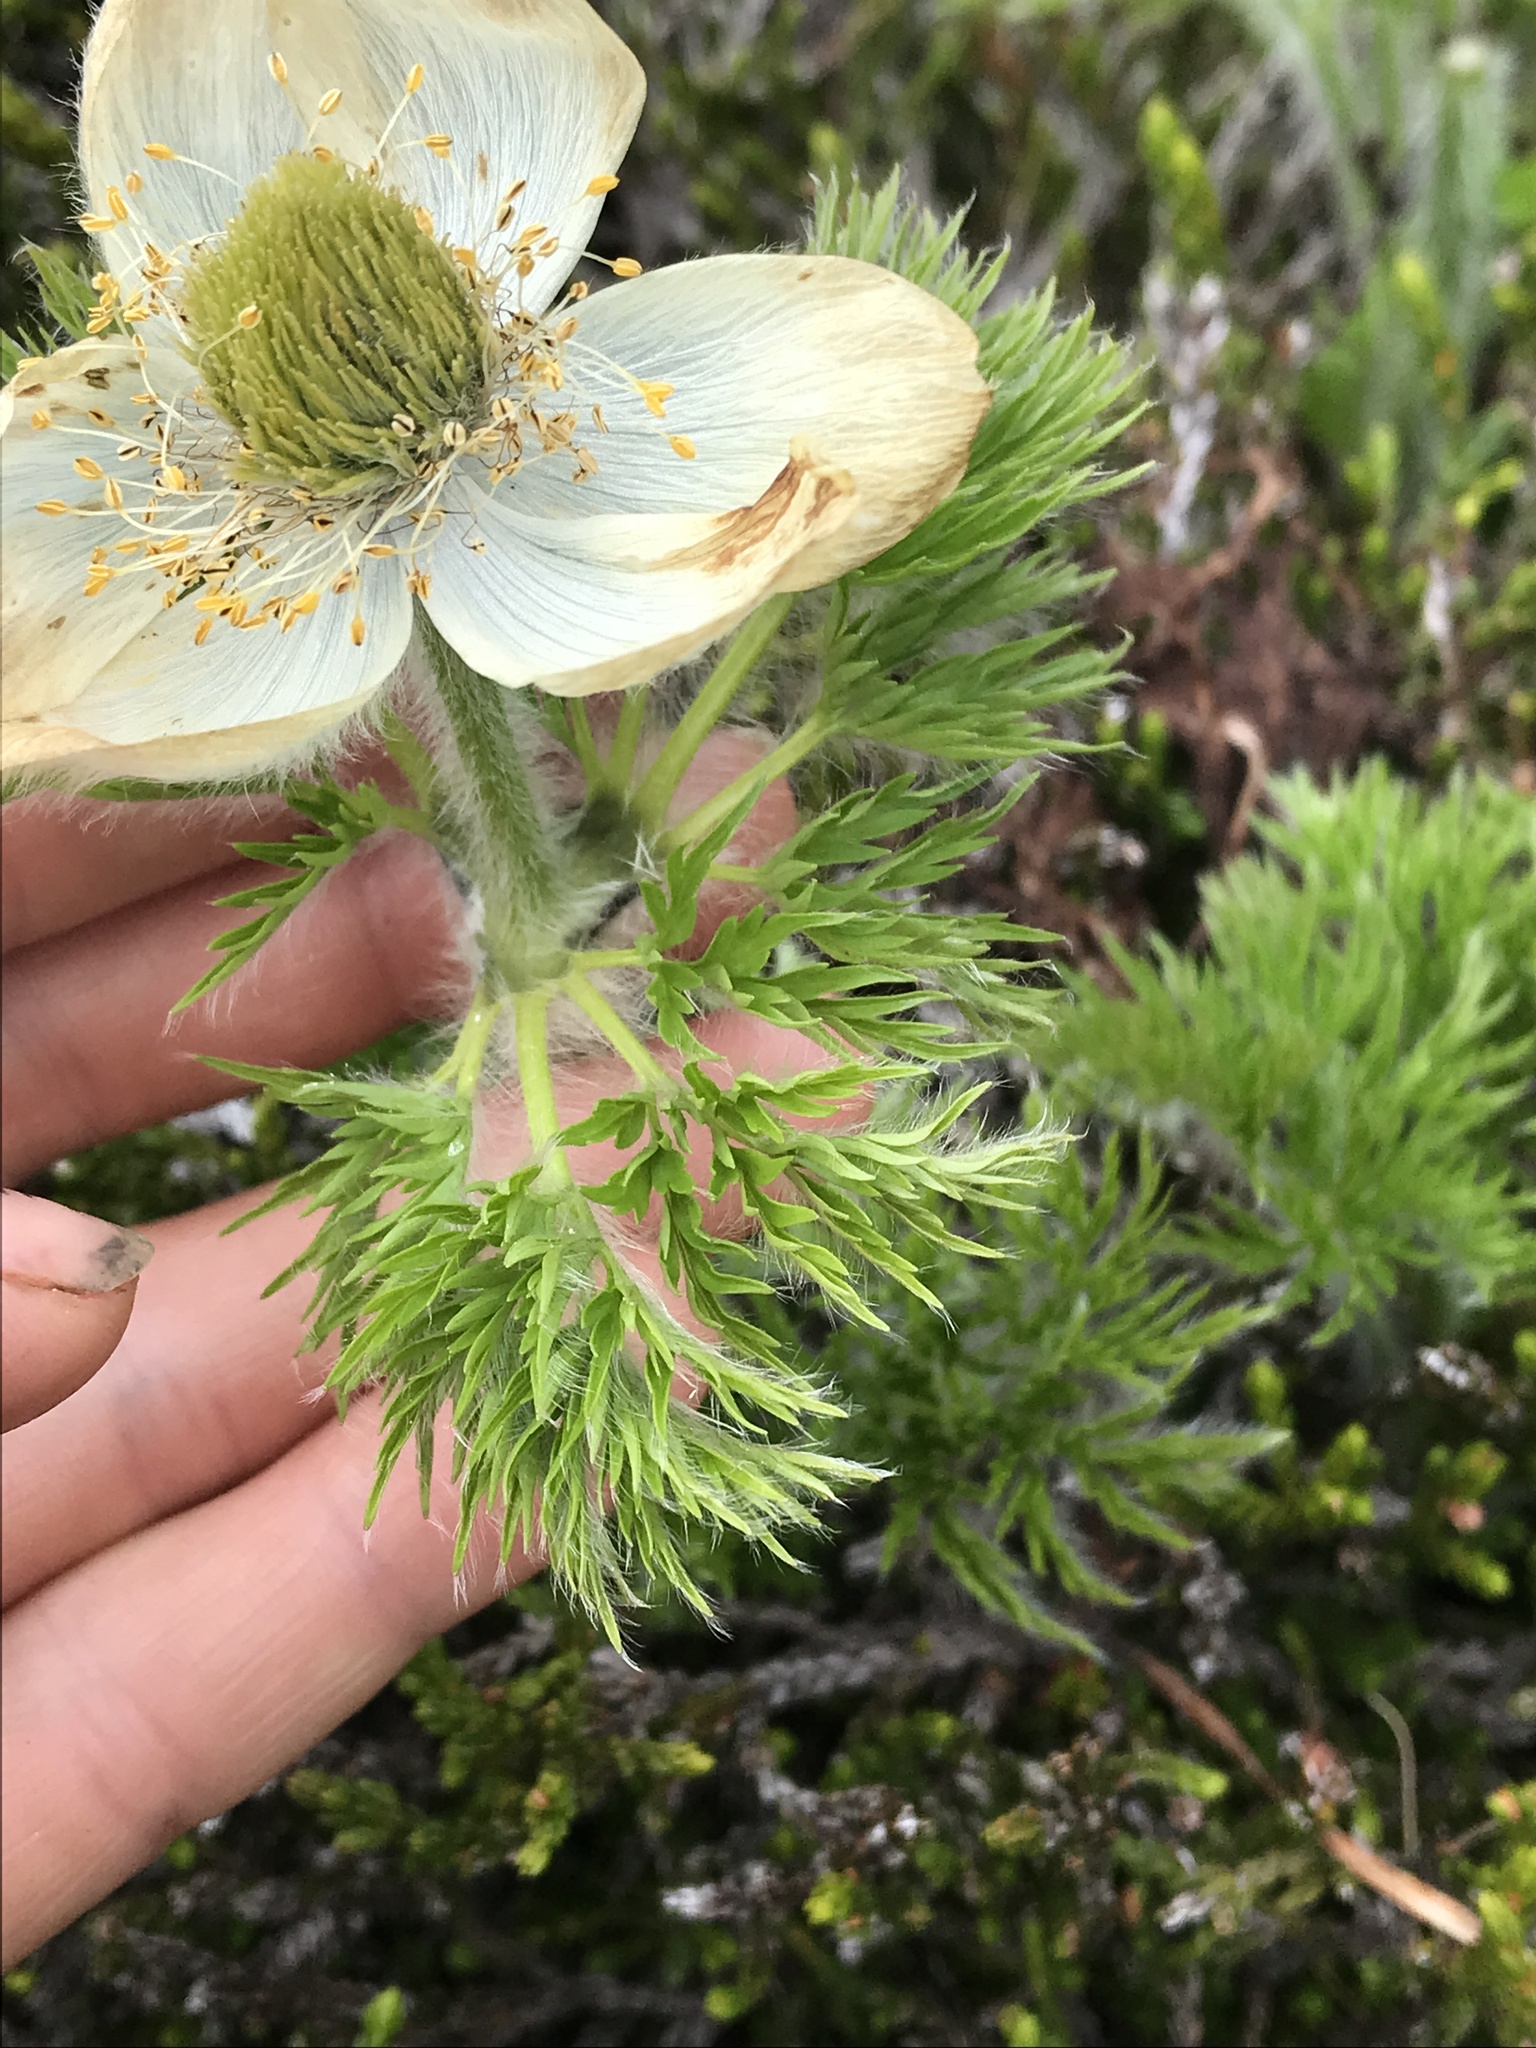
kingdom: Plantae
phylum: Tracheophyta
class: Magnoliopsida
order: Ranunculales
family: Ranunculaceae
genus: Pulsatilla
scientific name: Pulsatilla occidentalis
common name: Mountain pasqueflower
